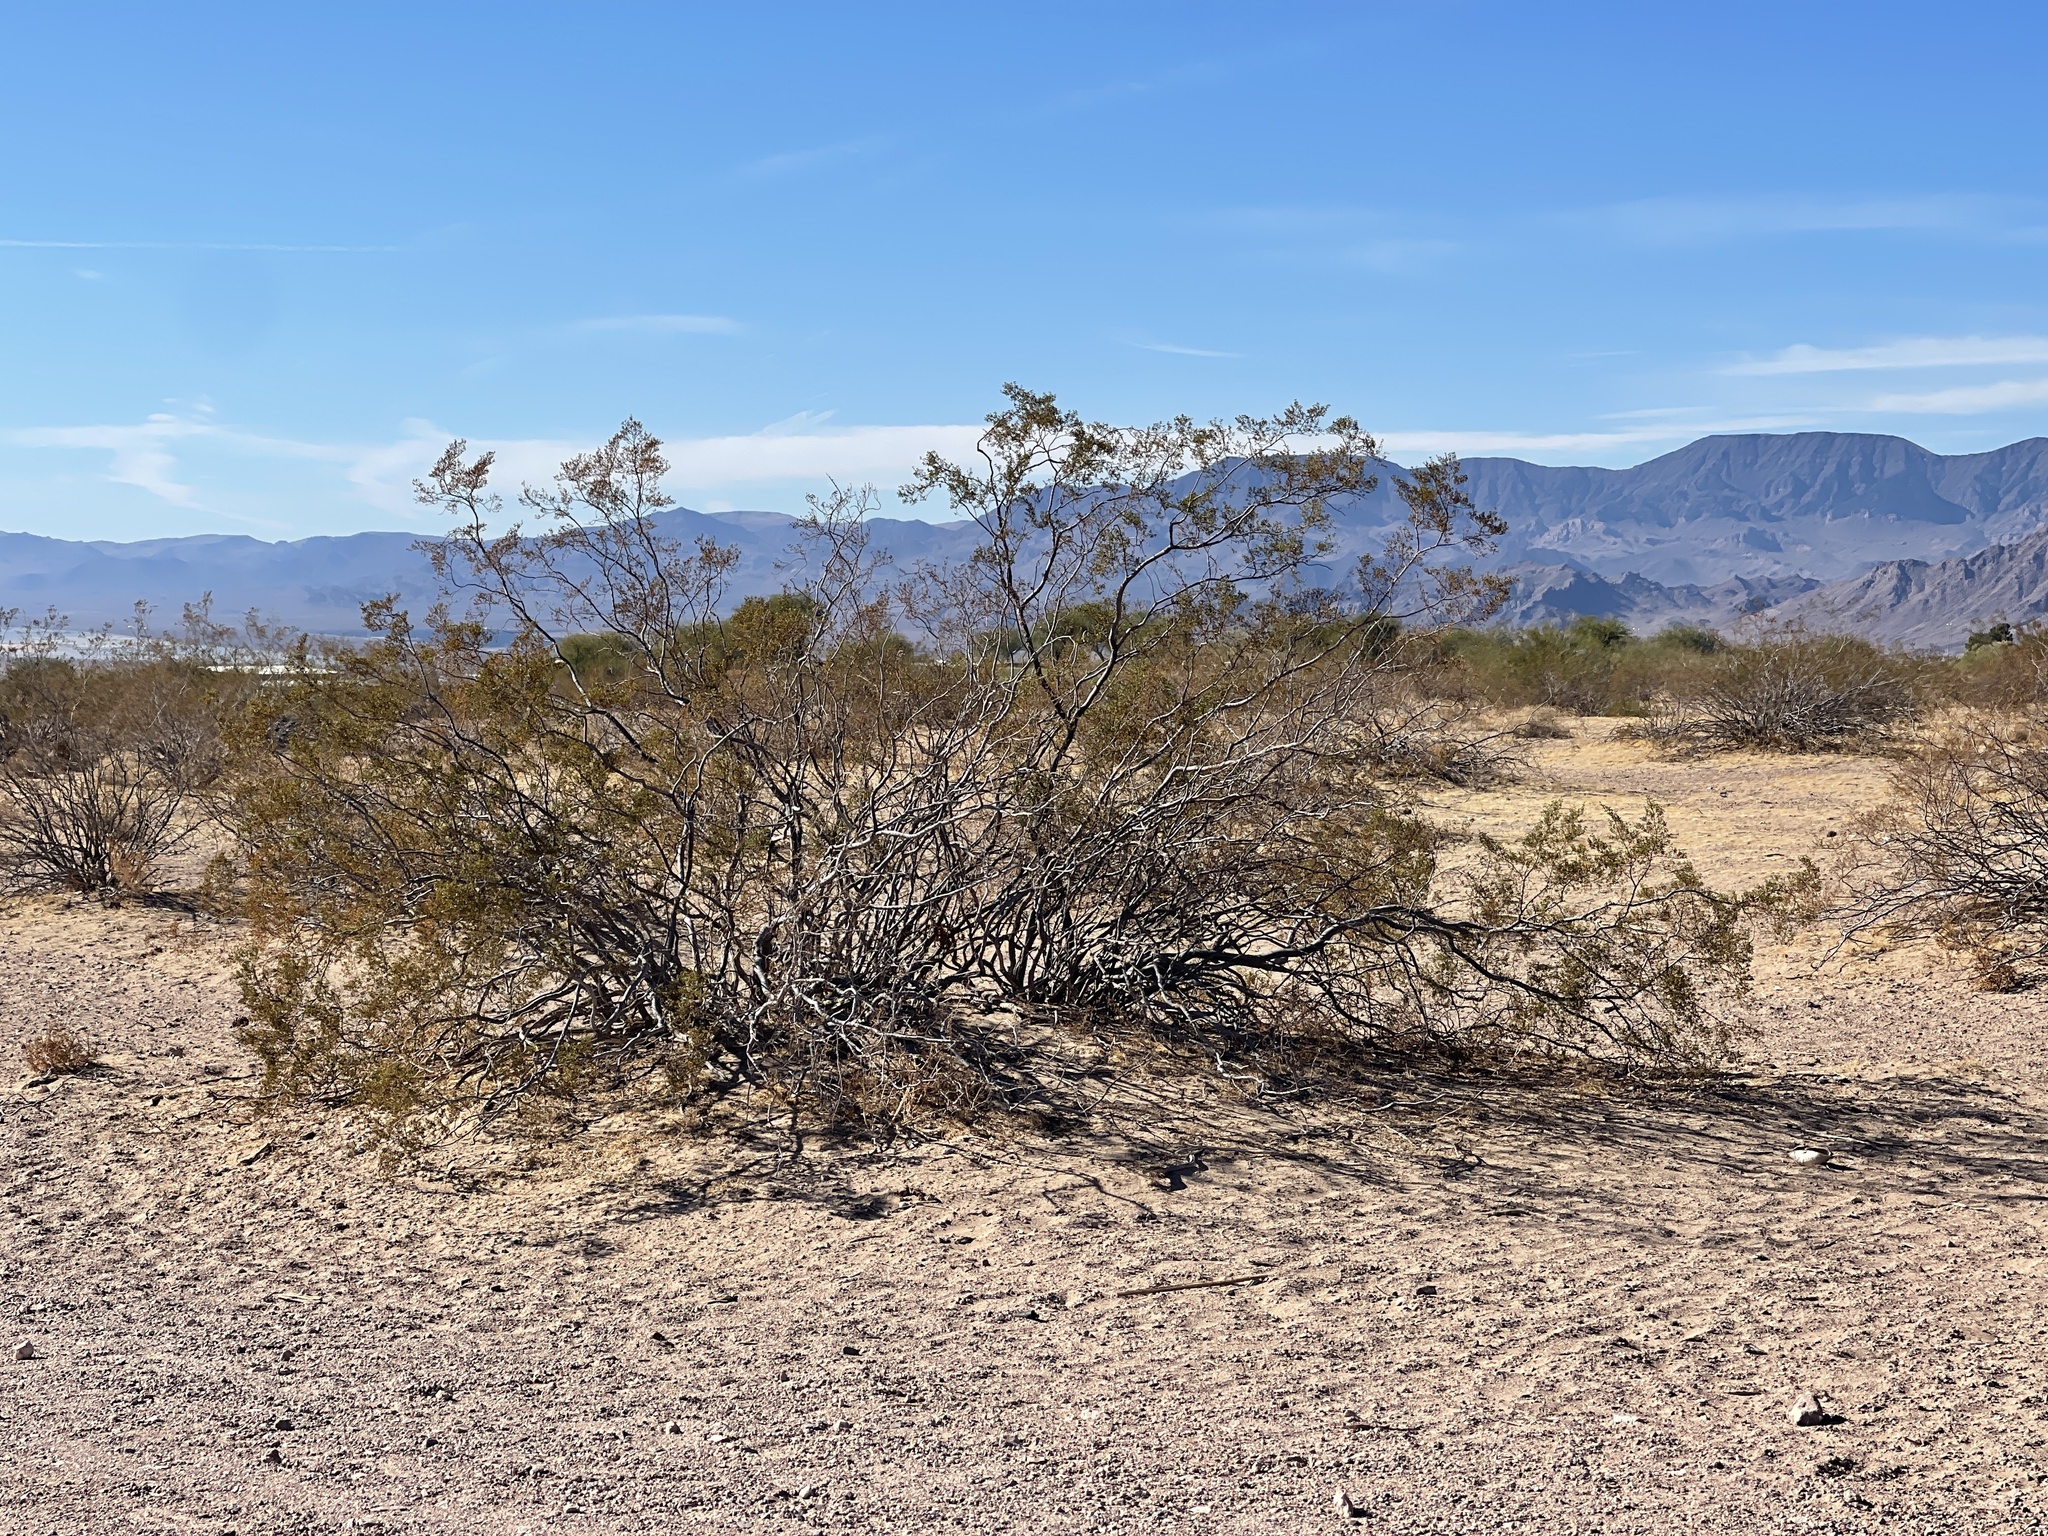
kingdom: Plantae
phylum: Tracheophyta
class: Magnoliopsida
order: Zygophyllales
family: Zygophyllaceae
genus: Larrea
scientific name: Larrea tridentata
